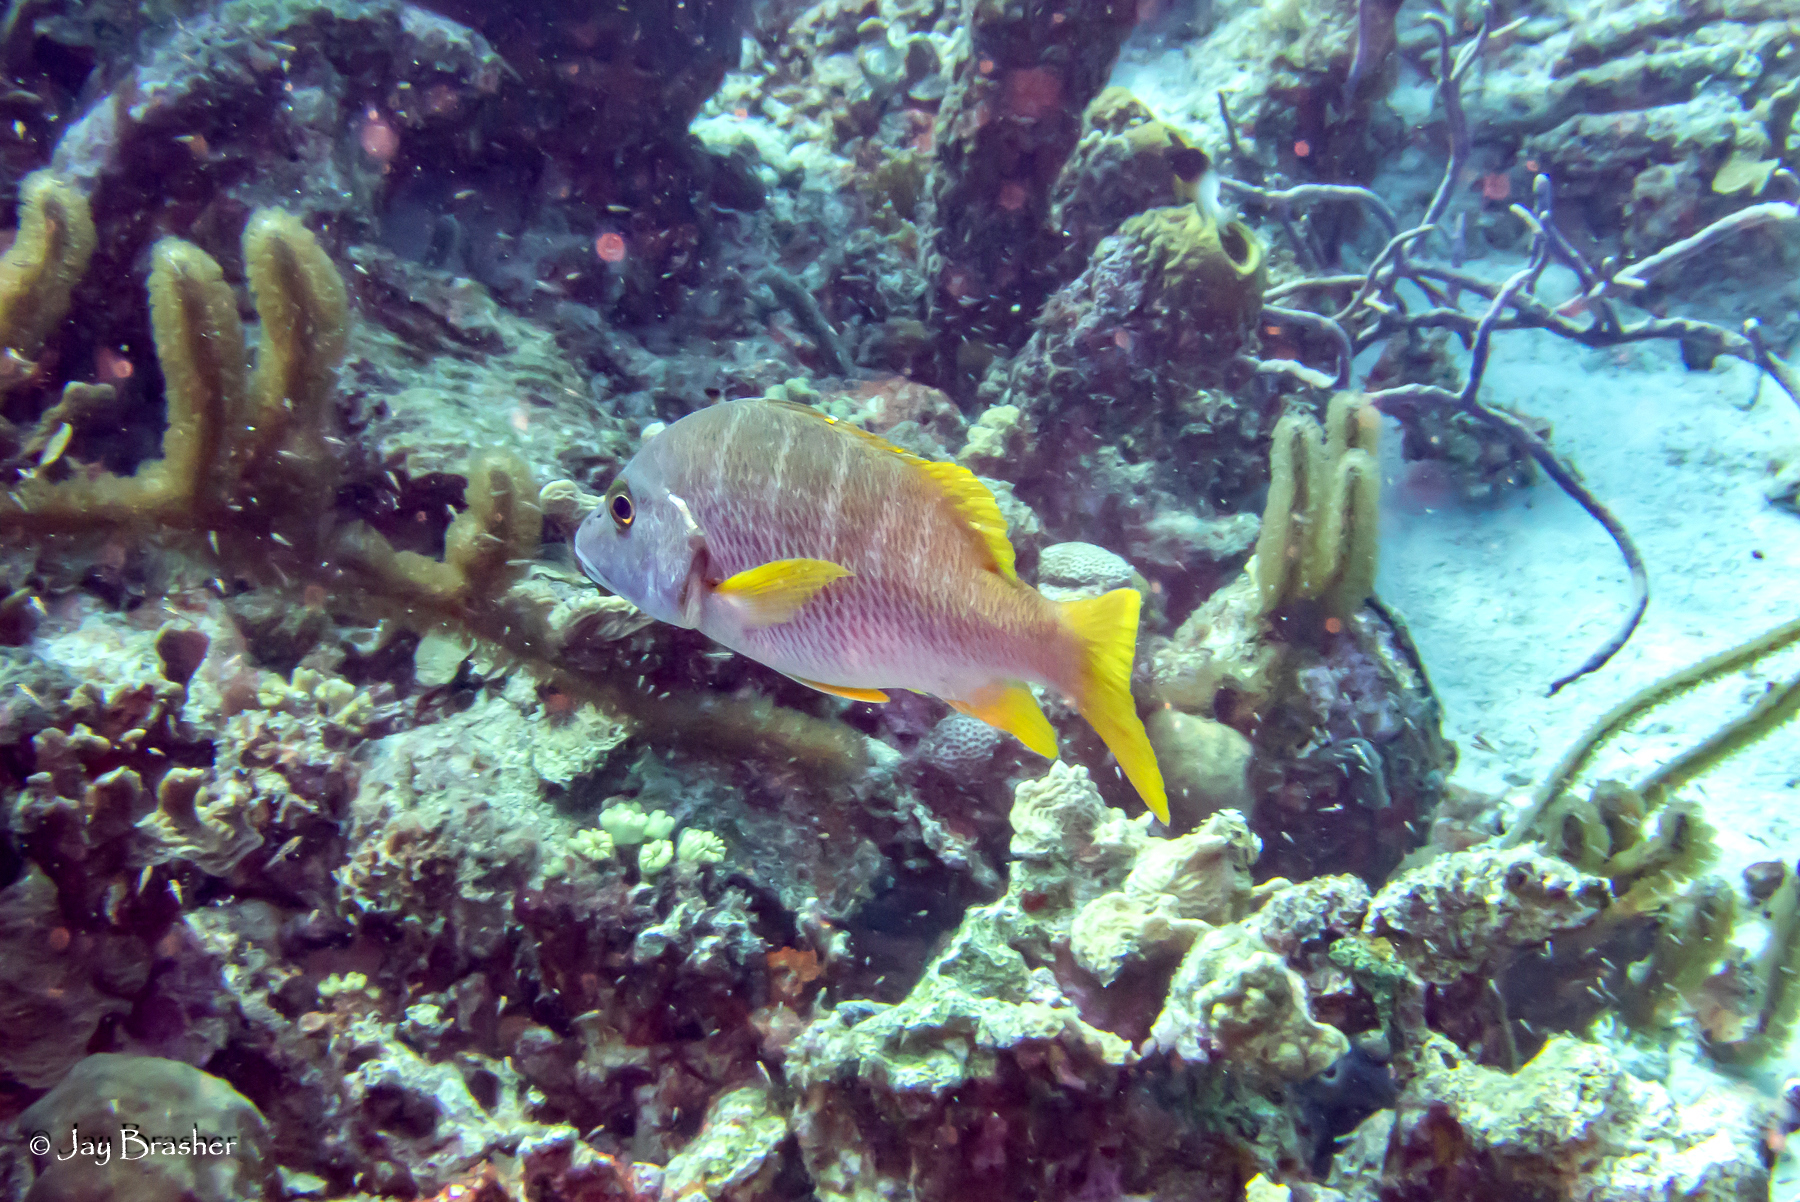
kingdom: Animalia
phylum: Chordata
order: Perciformes
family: Lutjanidae
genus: Lutjanus
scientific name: Lutjanus apodus
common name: Schoolmaster
